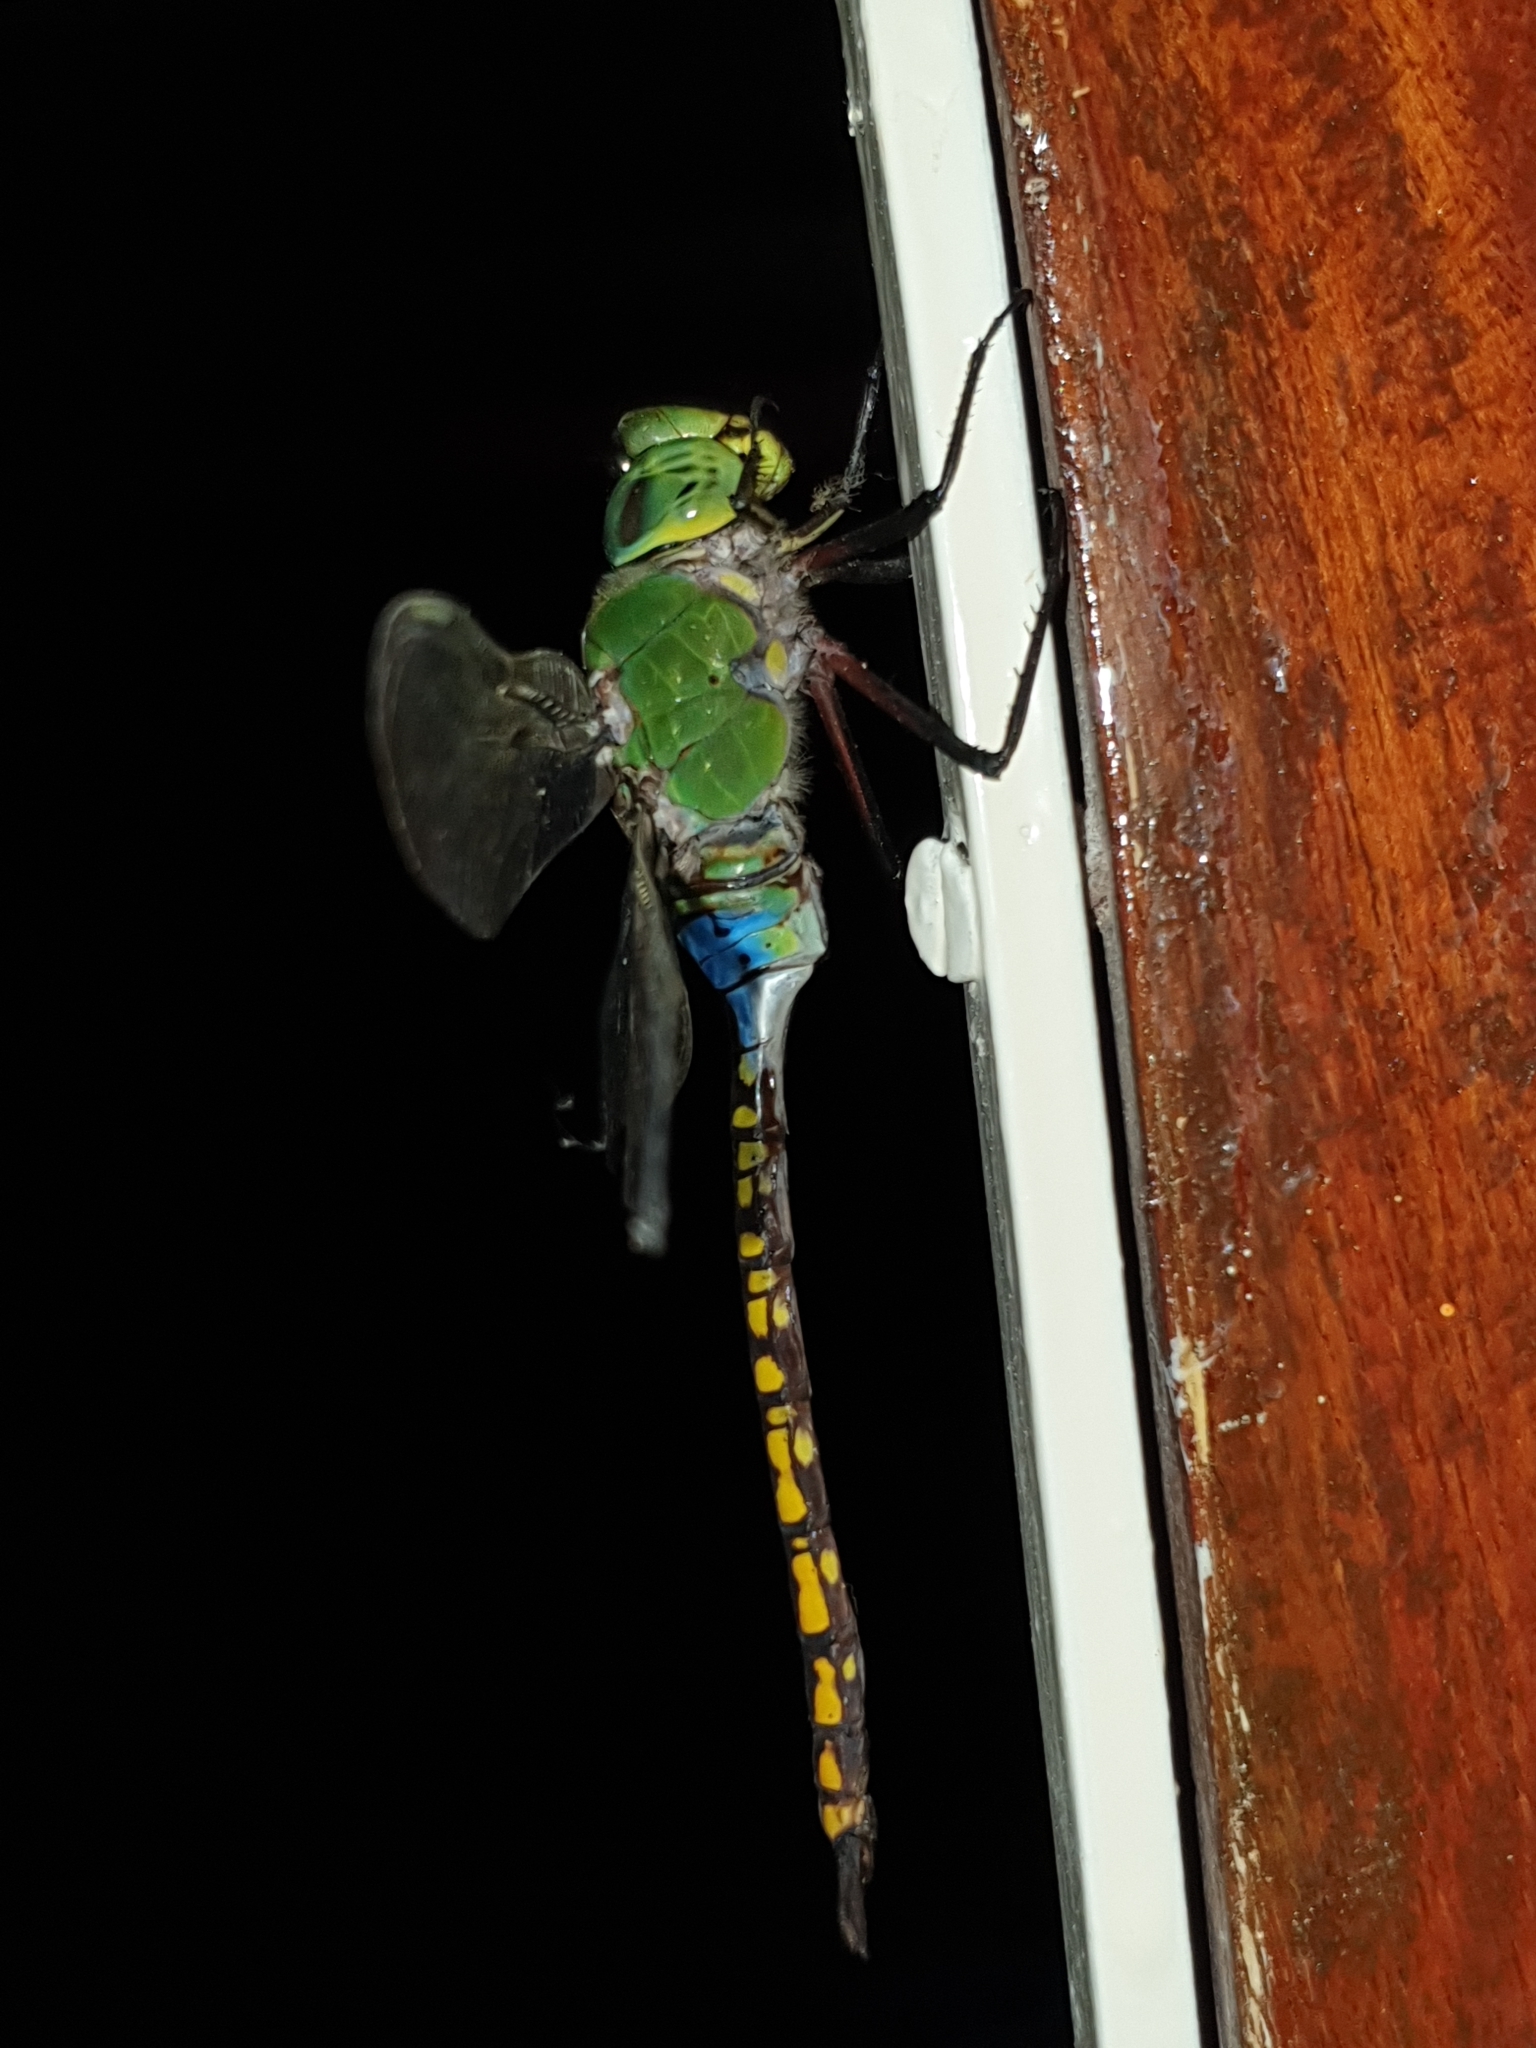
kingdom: Animalia
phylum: Arthropoda
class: Insecta
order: Odonata
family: Aeshnidae
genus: Anax
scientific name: Anax indicus
